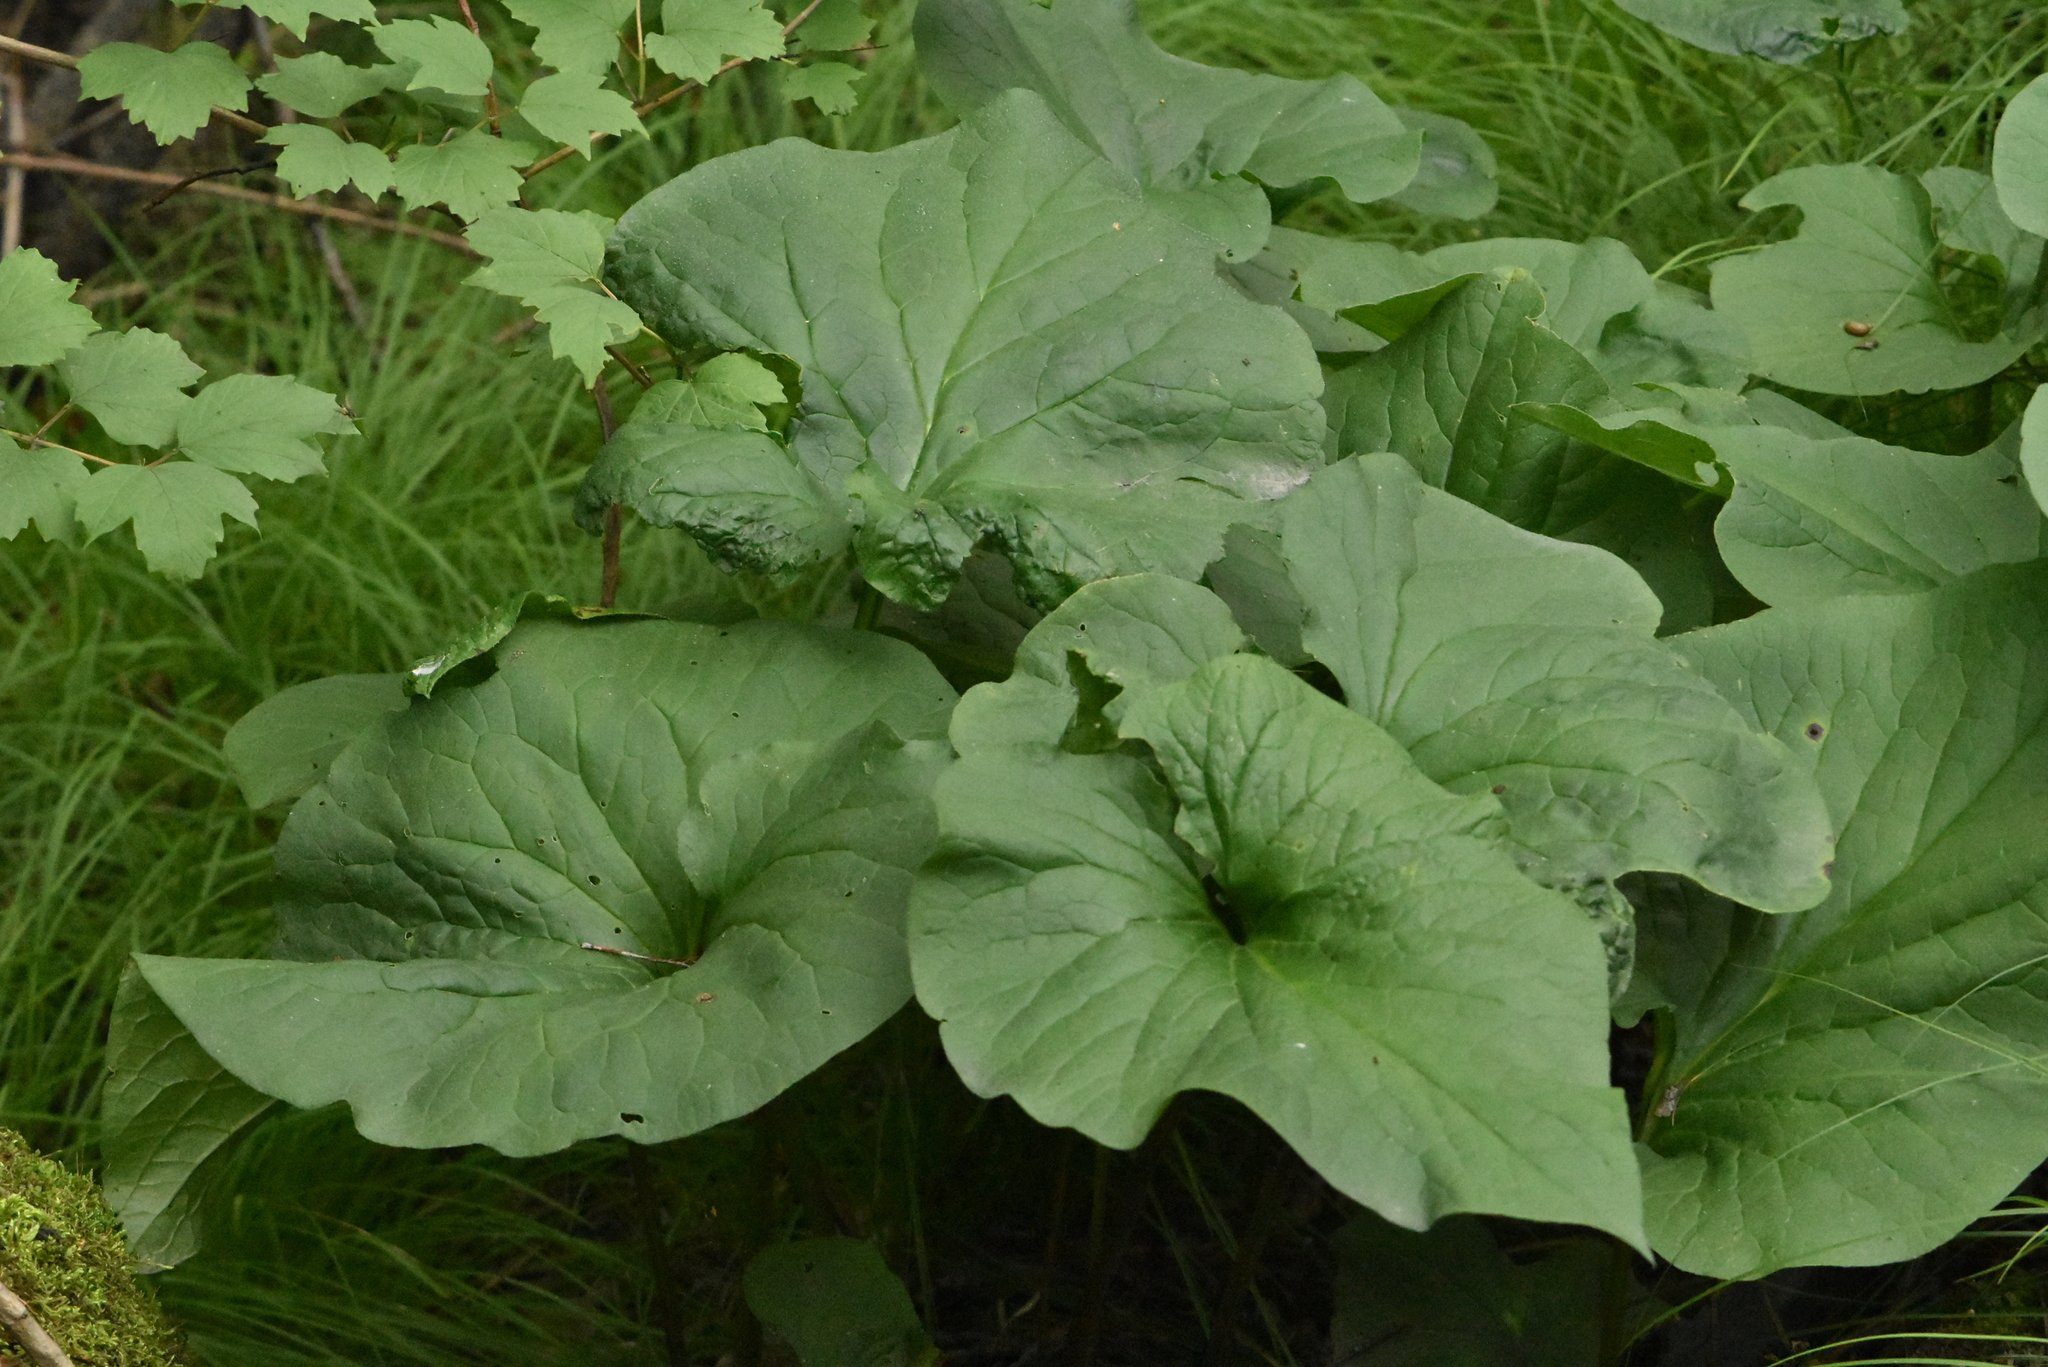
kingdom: Plantae
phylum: Tracheophyta
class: Magnoliopsida
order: Boraginales
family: Boraginaceae
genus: Brunnera
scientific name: Brunnera sibirica
